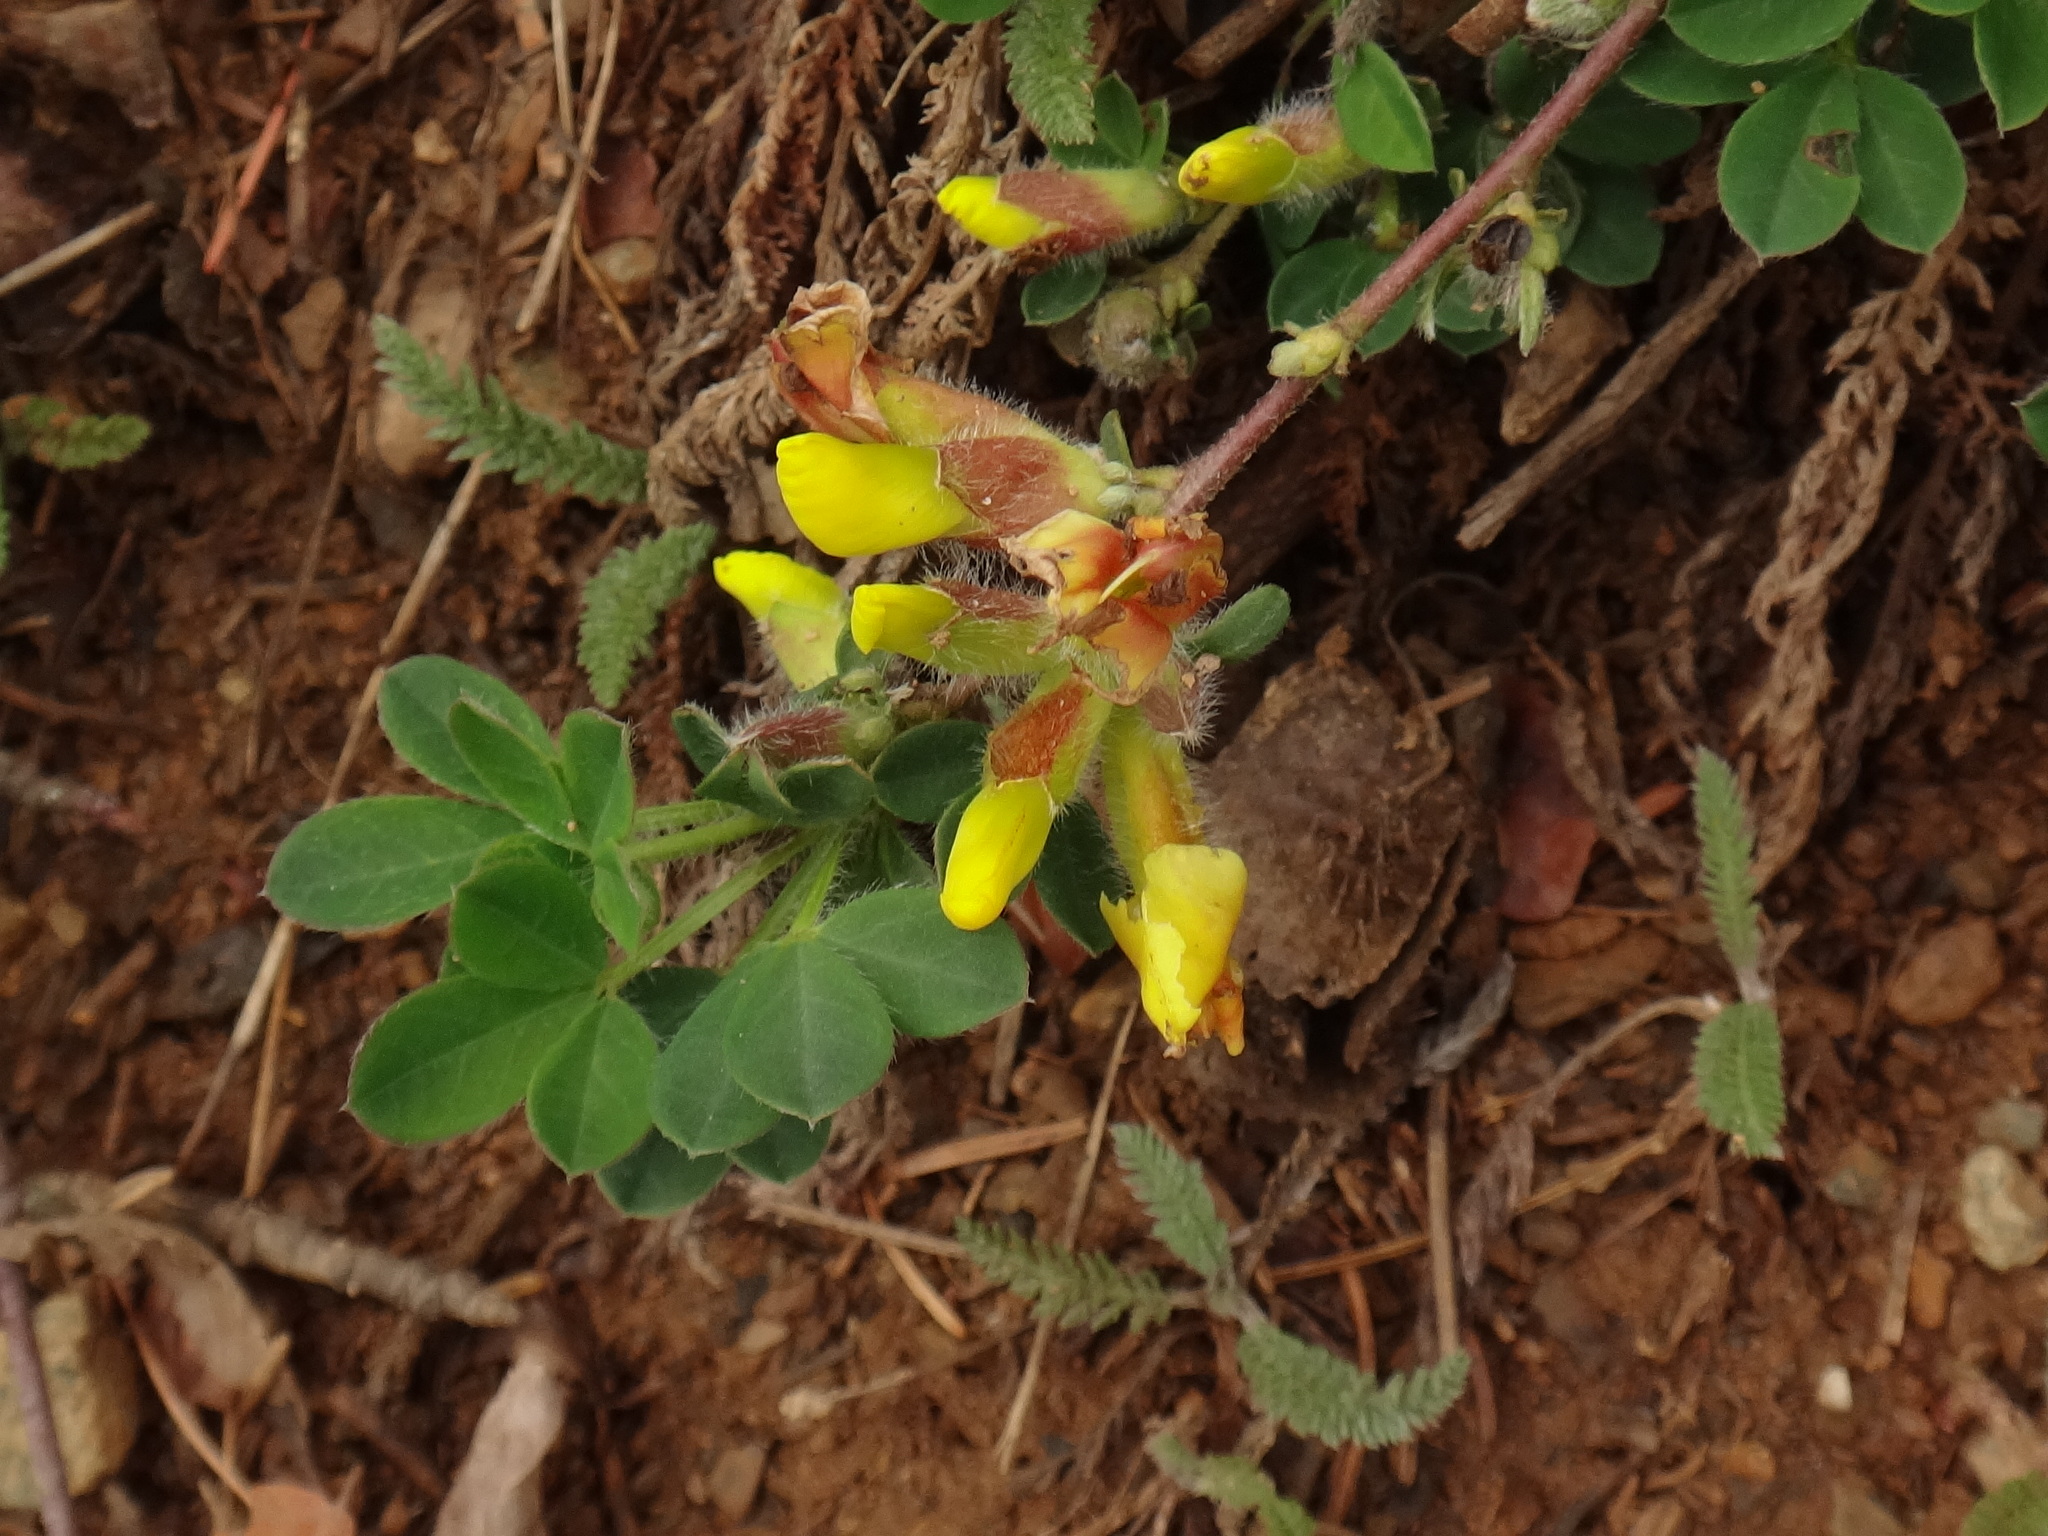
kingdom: Plantae
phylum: Tracheophyta
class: Magnoliopsida
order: Fabales
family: Fabaceae
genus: Chamaecytisus
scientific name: Chamaecytisus hirsutus
